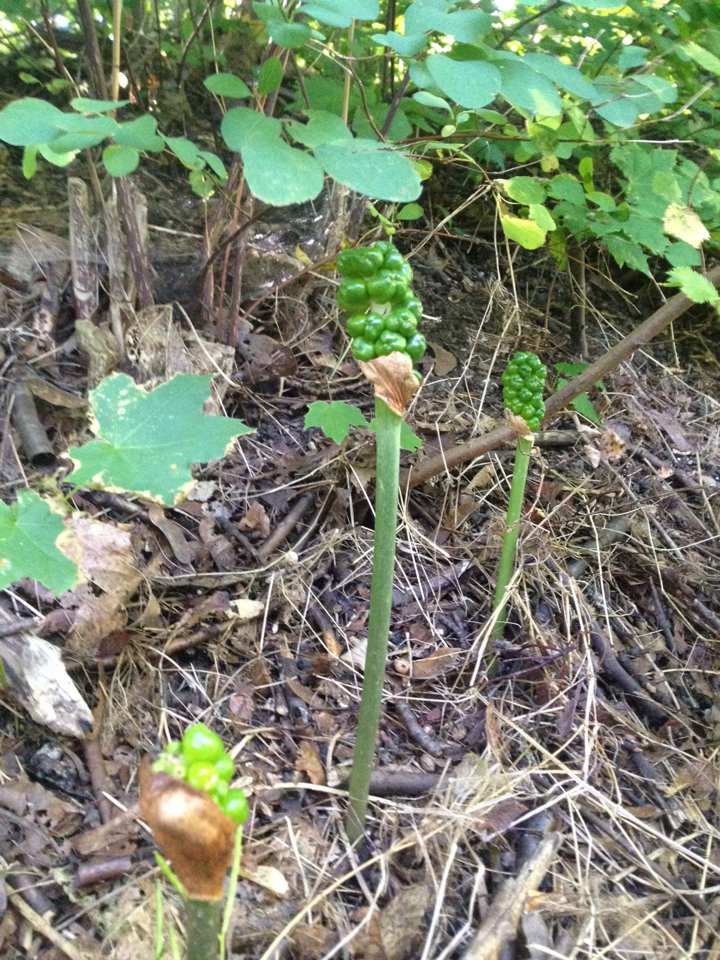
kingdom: Plantae
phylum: Tracheophyta
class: Liliopsida
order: Alismatales
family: Araceae
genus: Arum
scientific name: Arum italicum
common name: Italian lords-and-ladies
